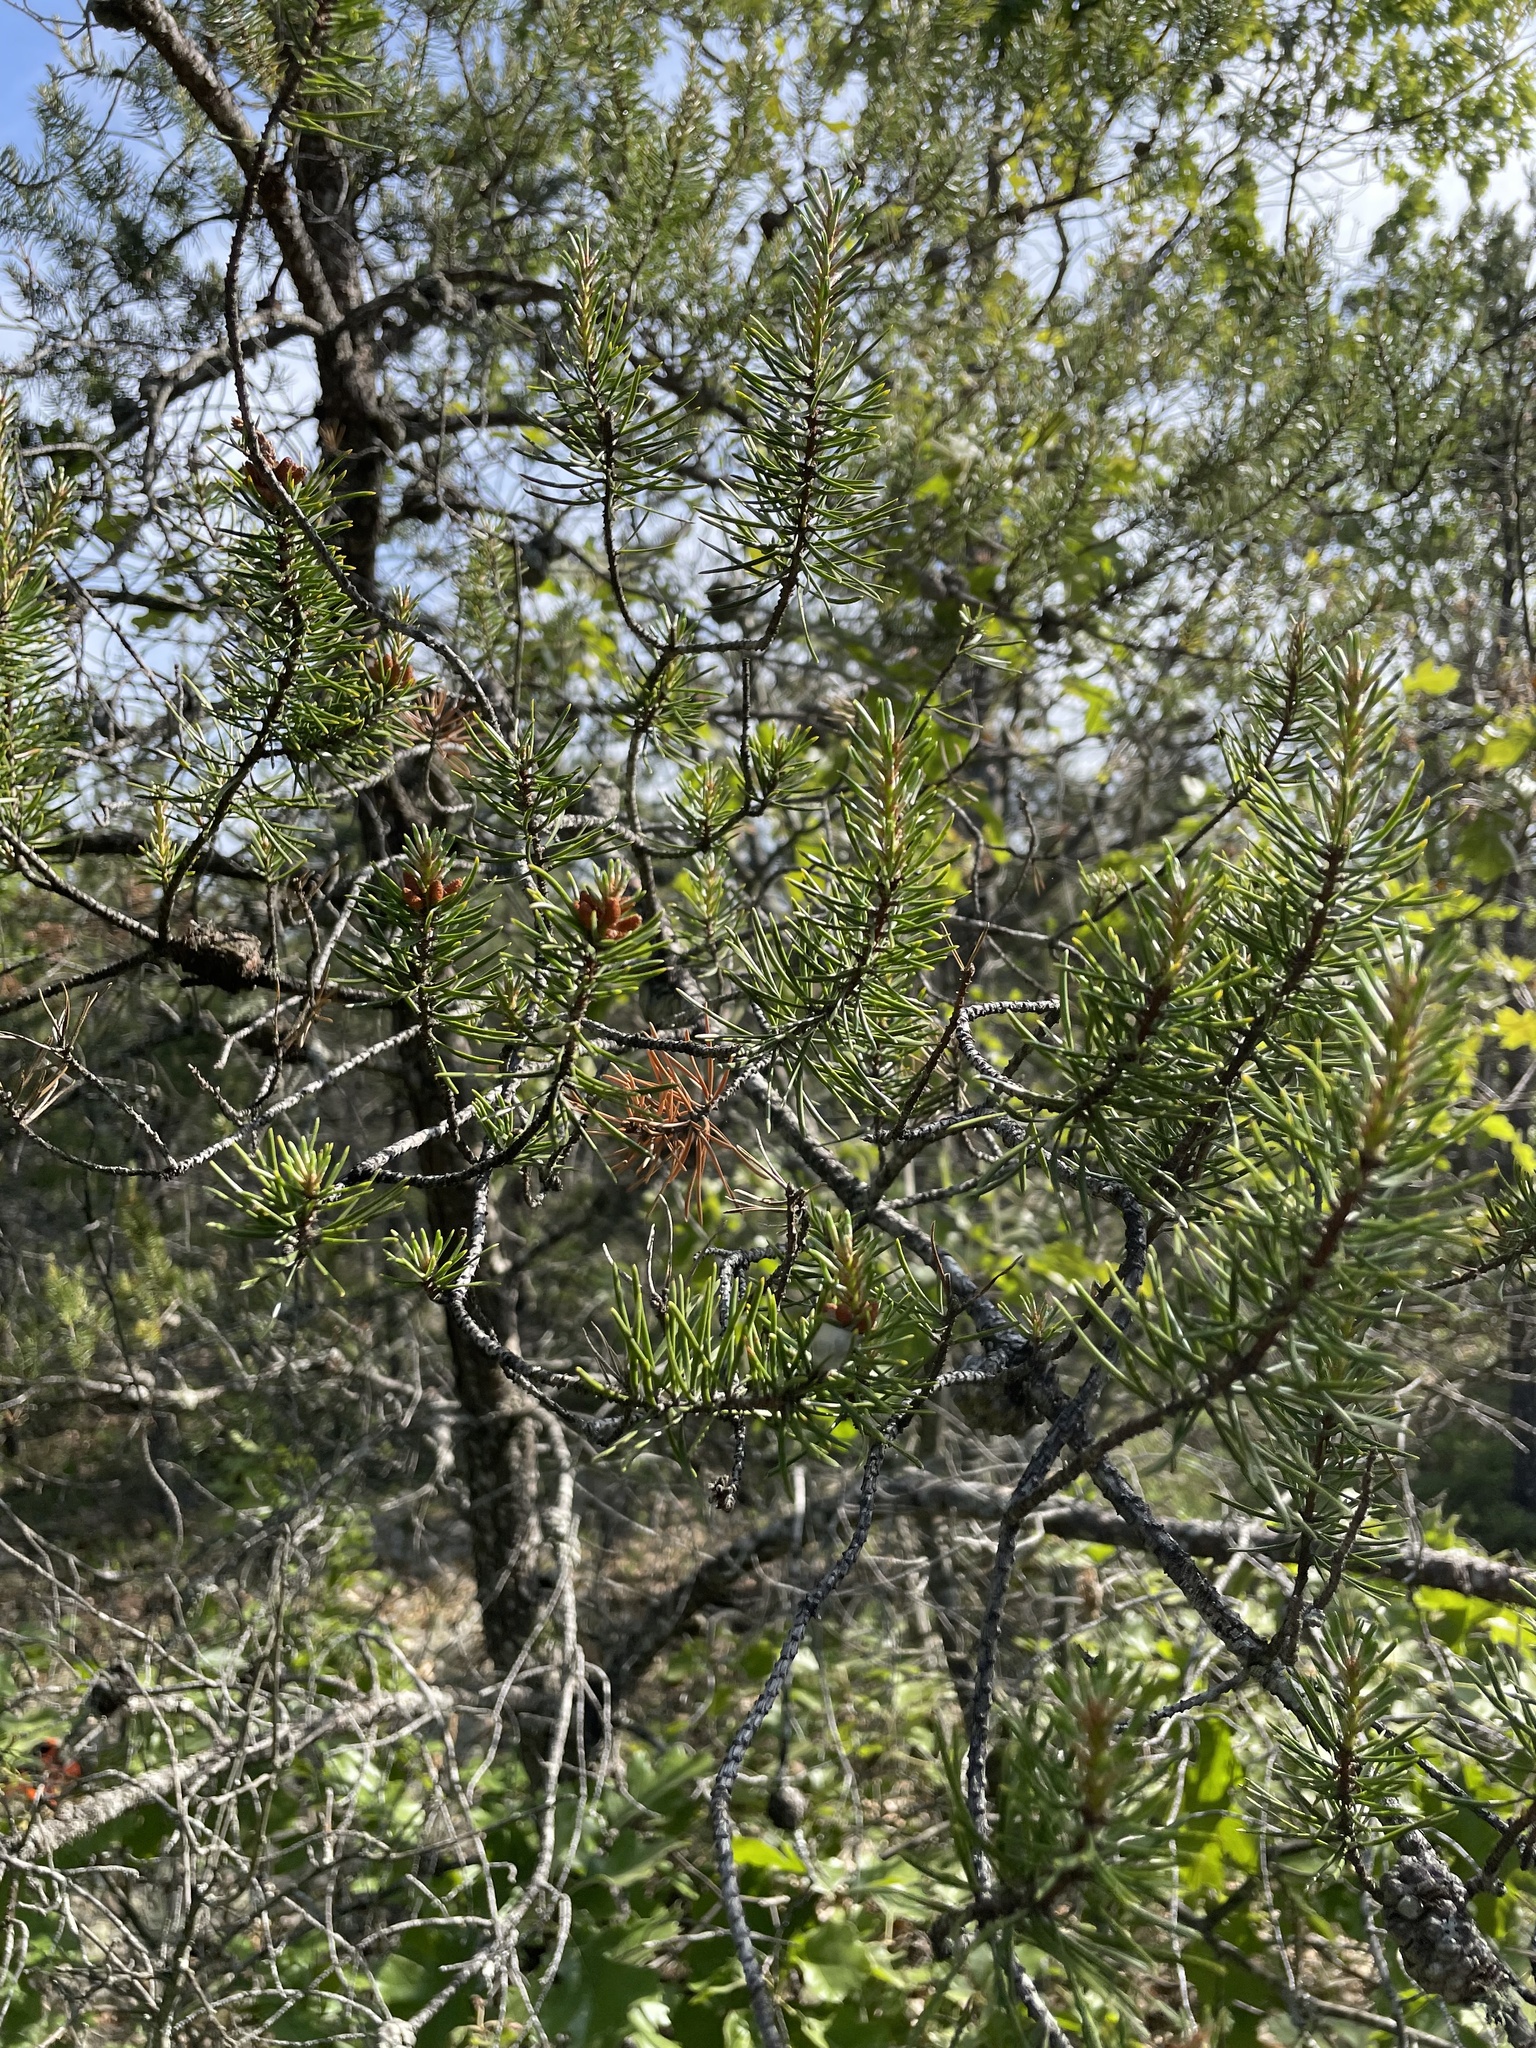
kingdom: Plantae
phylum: Tracheophyta
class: Pinopsida
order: Pinales
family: Pinaceae
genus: Pinus
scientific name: Pinus banksiana
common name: Jack pine
